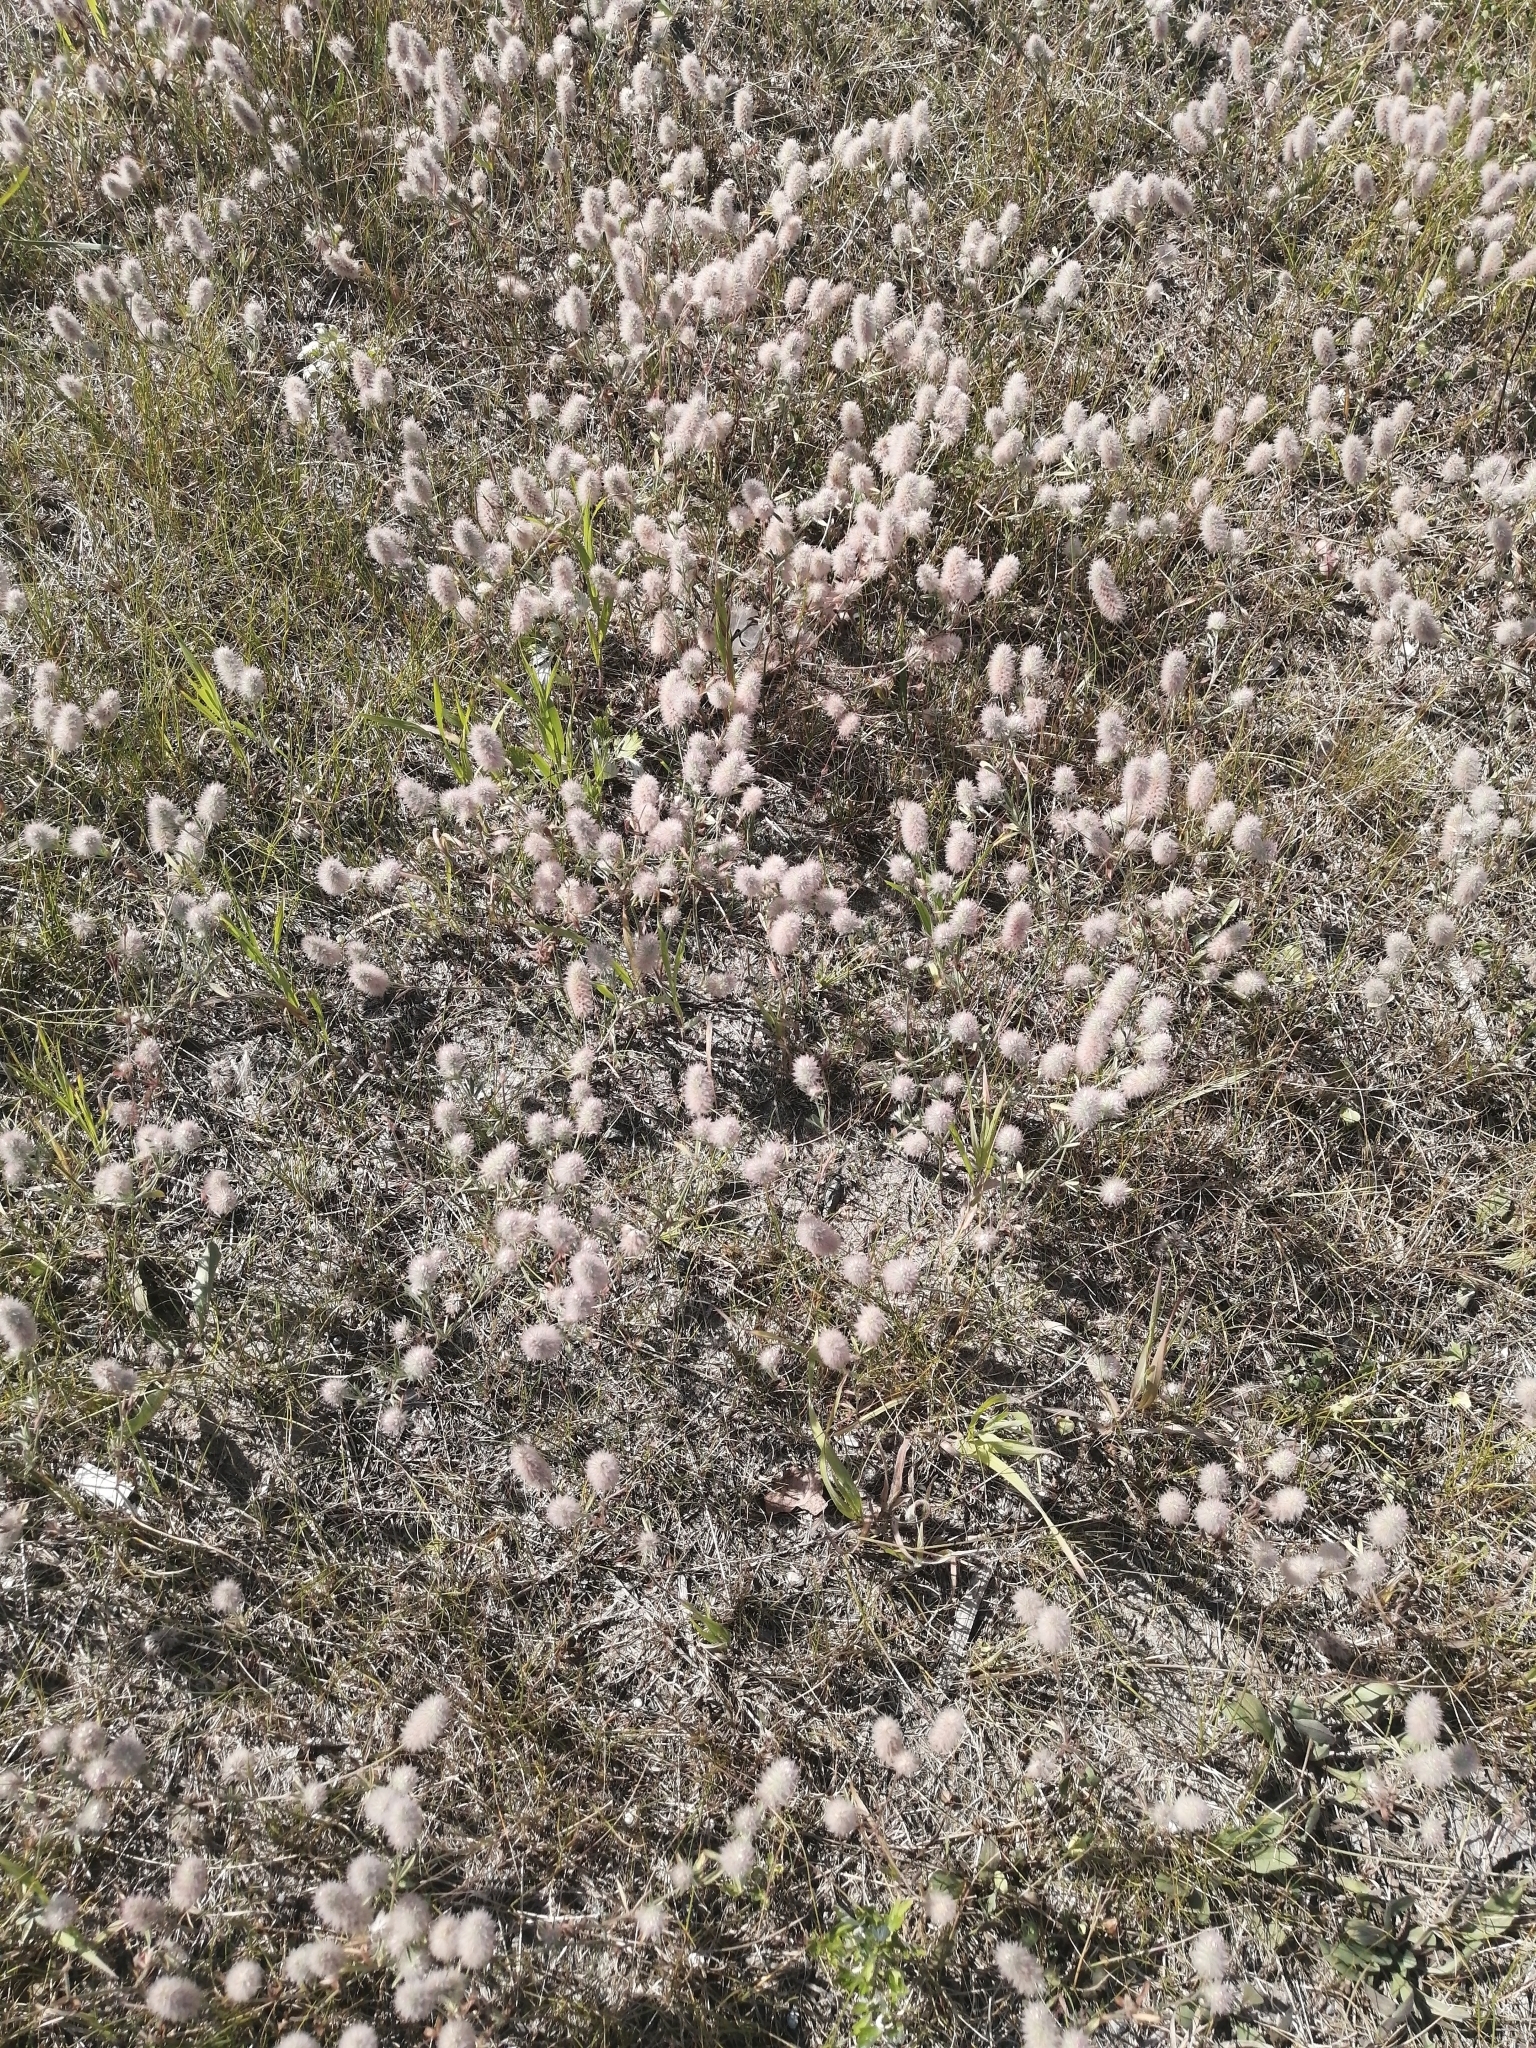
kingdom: Plantae
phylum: Tracheophyta
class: Magnoliopsida
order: Fabales
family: Fabaceae
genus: Trifolium
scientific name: Trifolium arvense
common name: Hare's-foot clover
